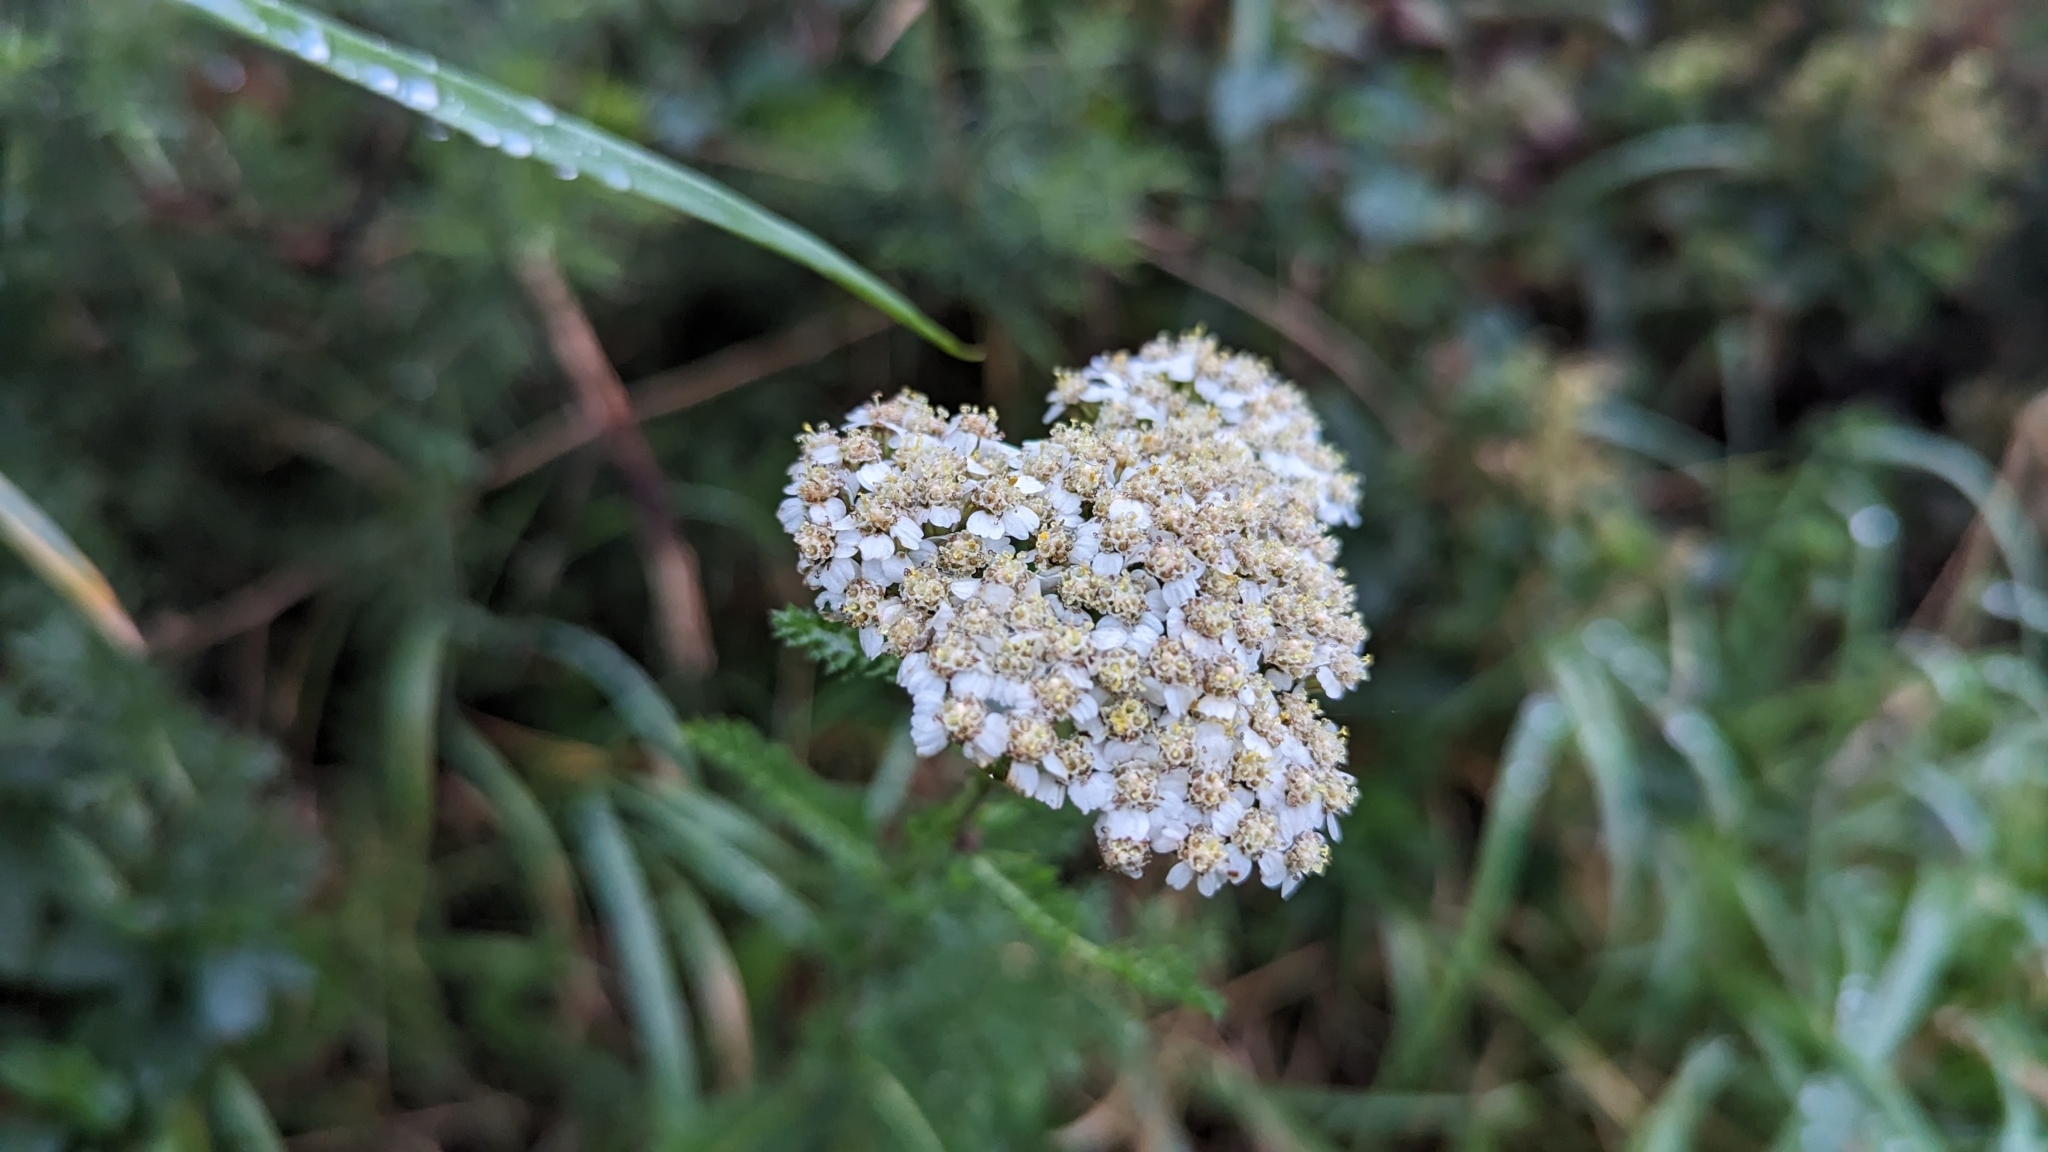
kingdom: Plantae
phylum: Tracheophyta
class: Magnoliopsida
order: Asterales
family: Asteraceae
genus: Achillea
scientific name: Achillea millefolium
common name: Yarrow
